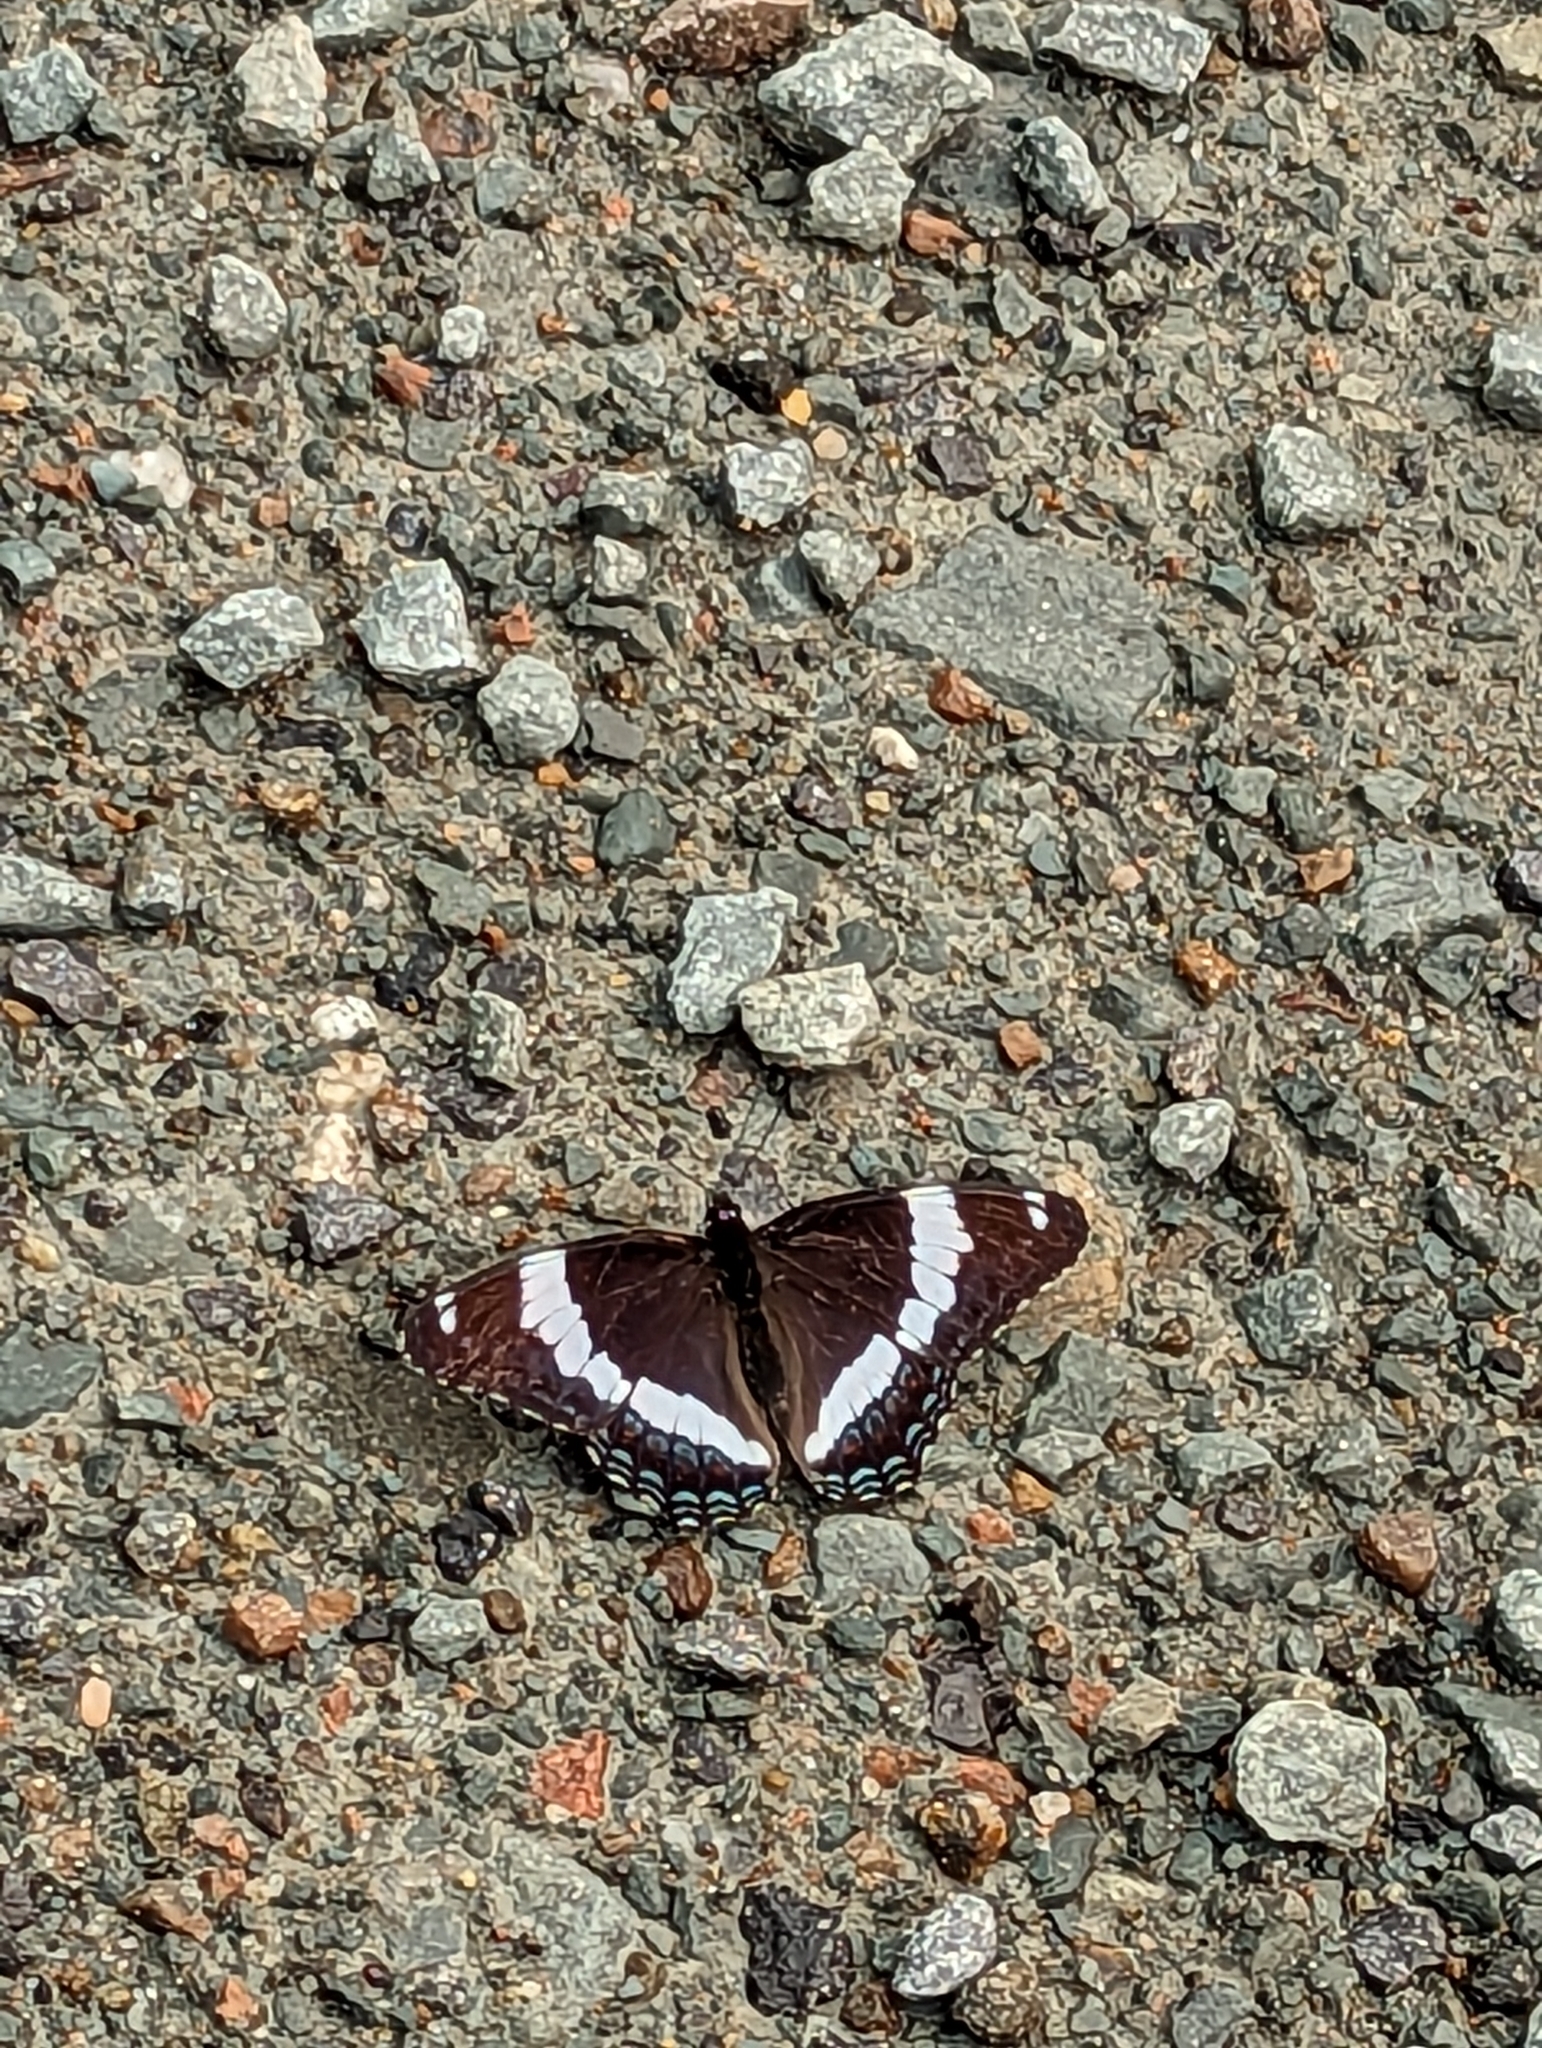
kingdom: Animalia
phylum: Arthropoda
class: Insecta
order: Lepidoptera
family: Nymphalidae
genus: Limenitis
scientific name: Limenitis arthemis
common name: Red-spotted admiral
